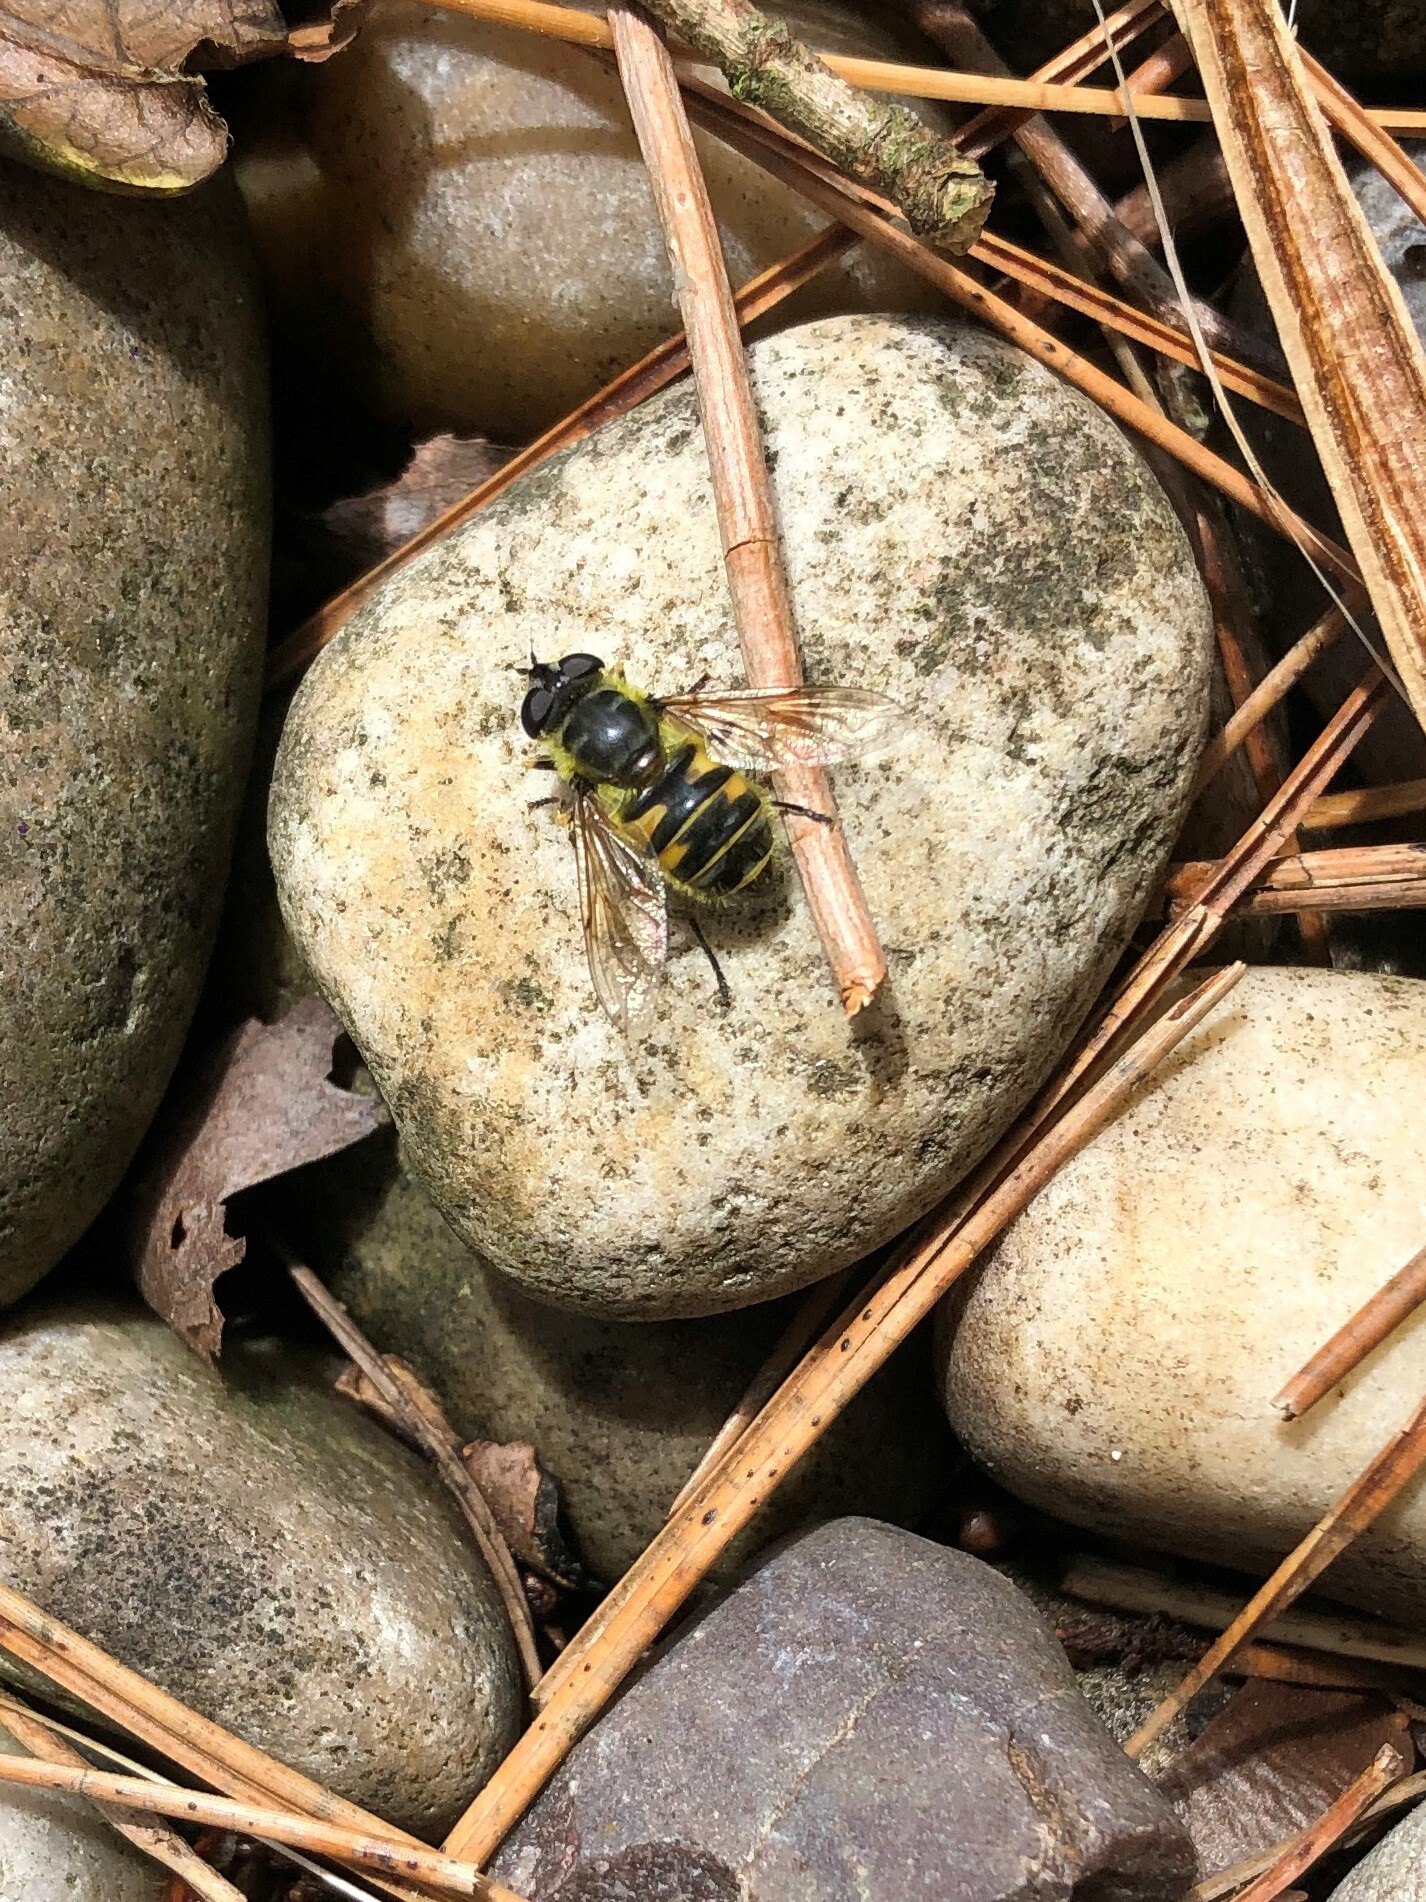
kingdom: Animalia
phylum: Arthropoda
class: Insecta
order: Diptera
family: Syrphidae
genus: Myathropa
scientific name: Myathropa florea
